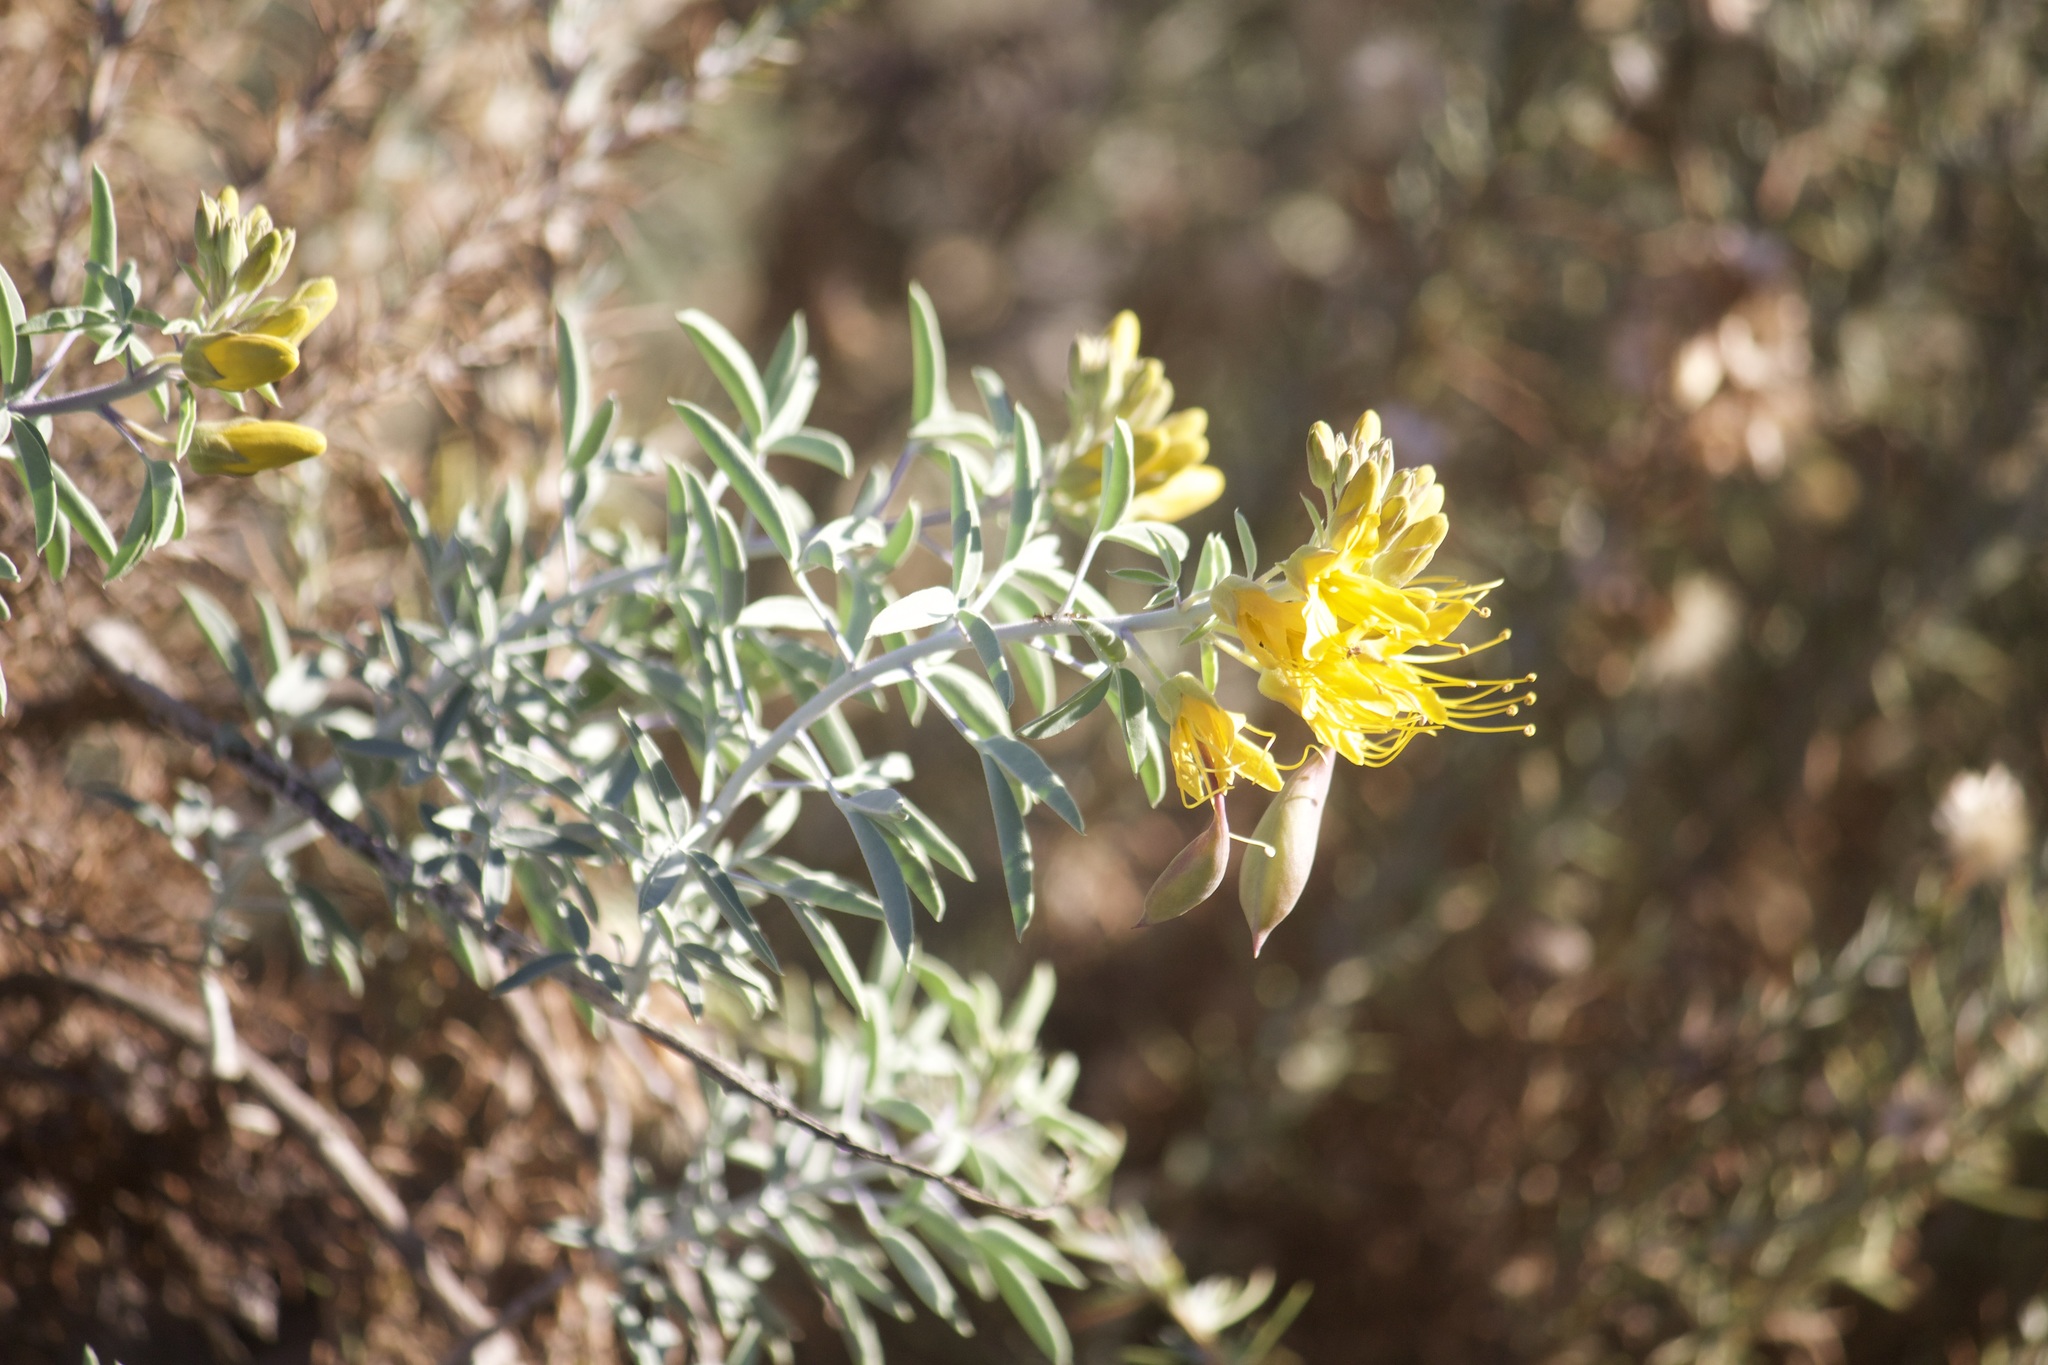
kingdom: Plantae
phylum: Tracheophyta
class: Magnoliopsida
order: Brassicales
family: Cleomaceae
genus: Cleomella
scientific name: Cleomella arborea
